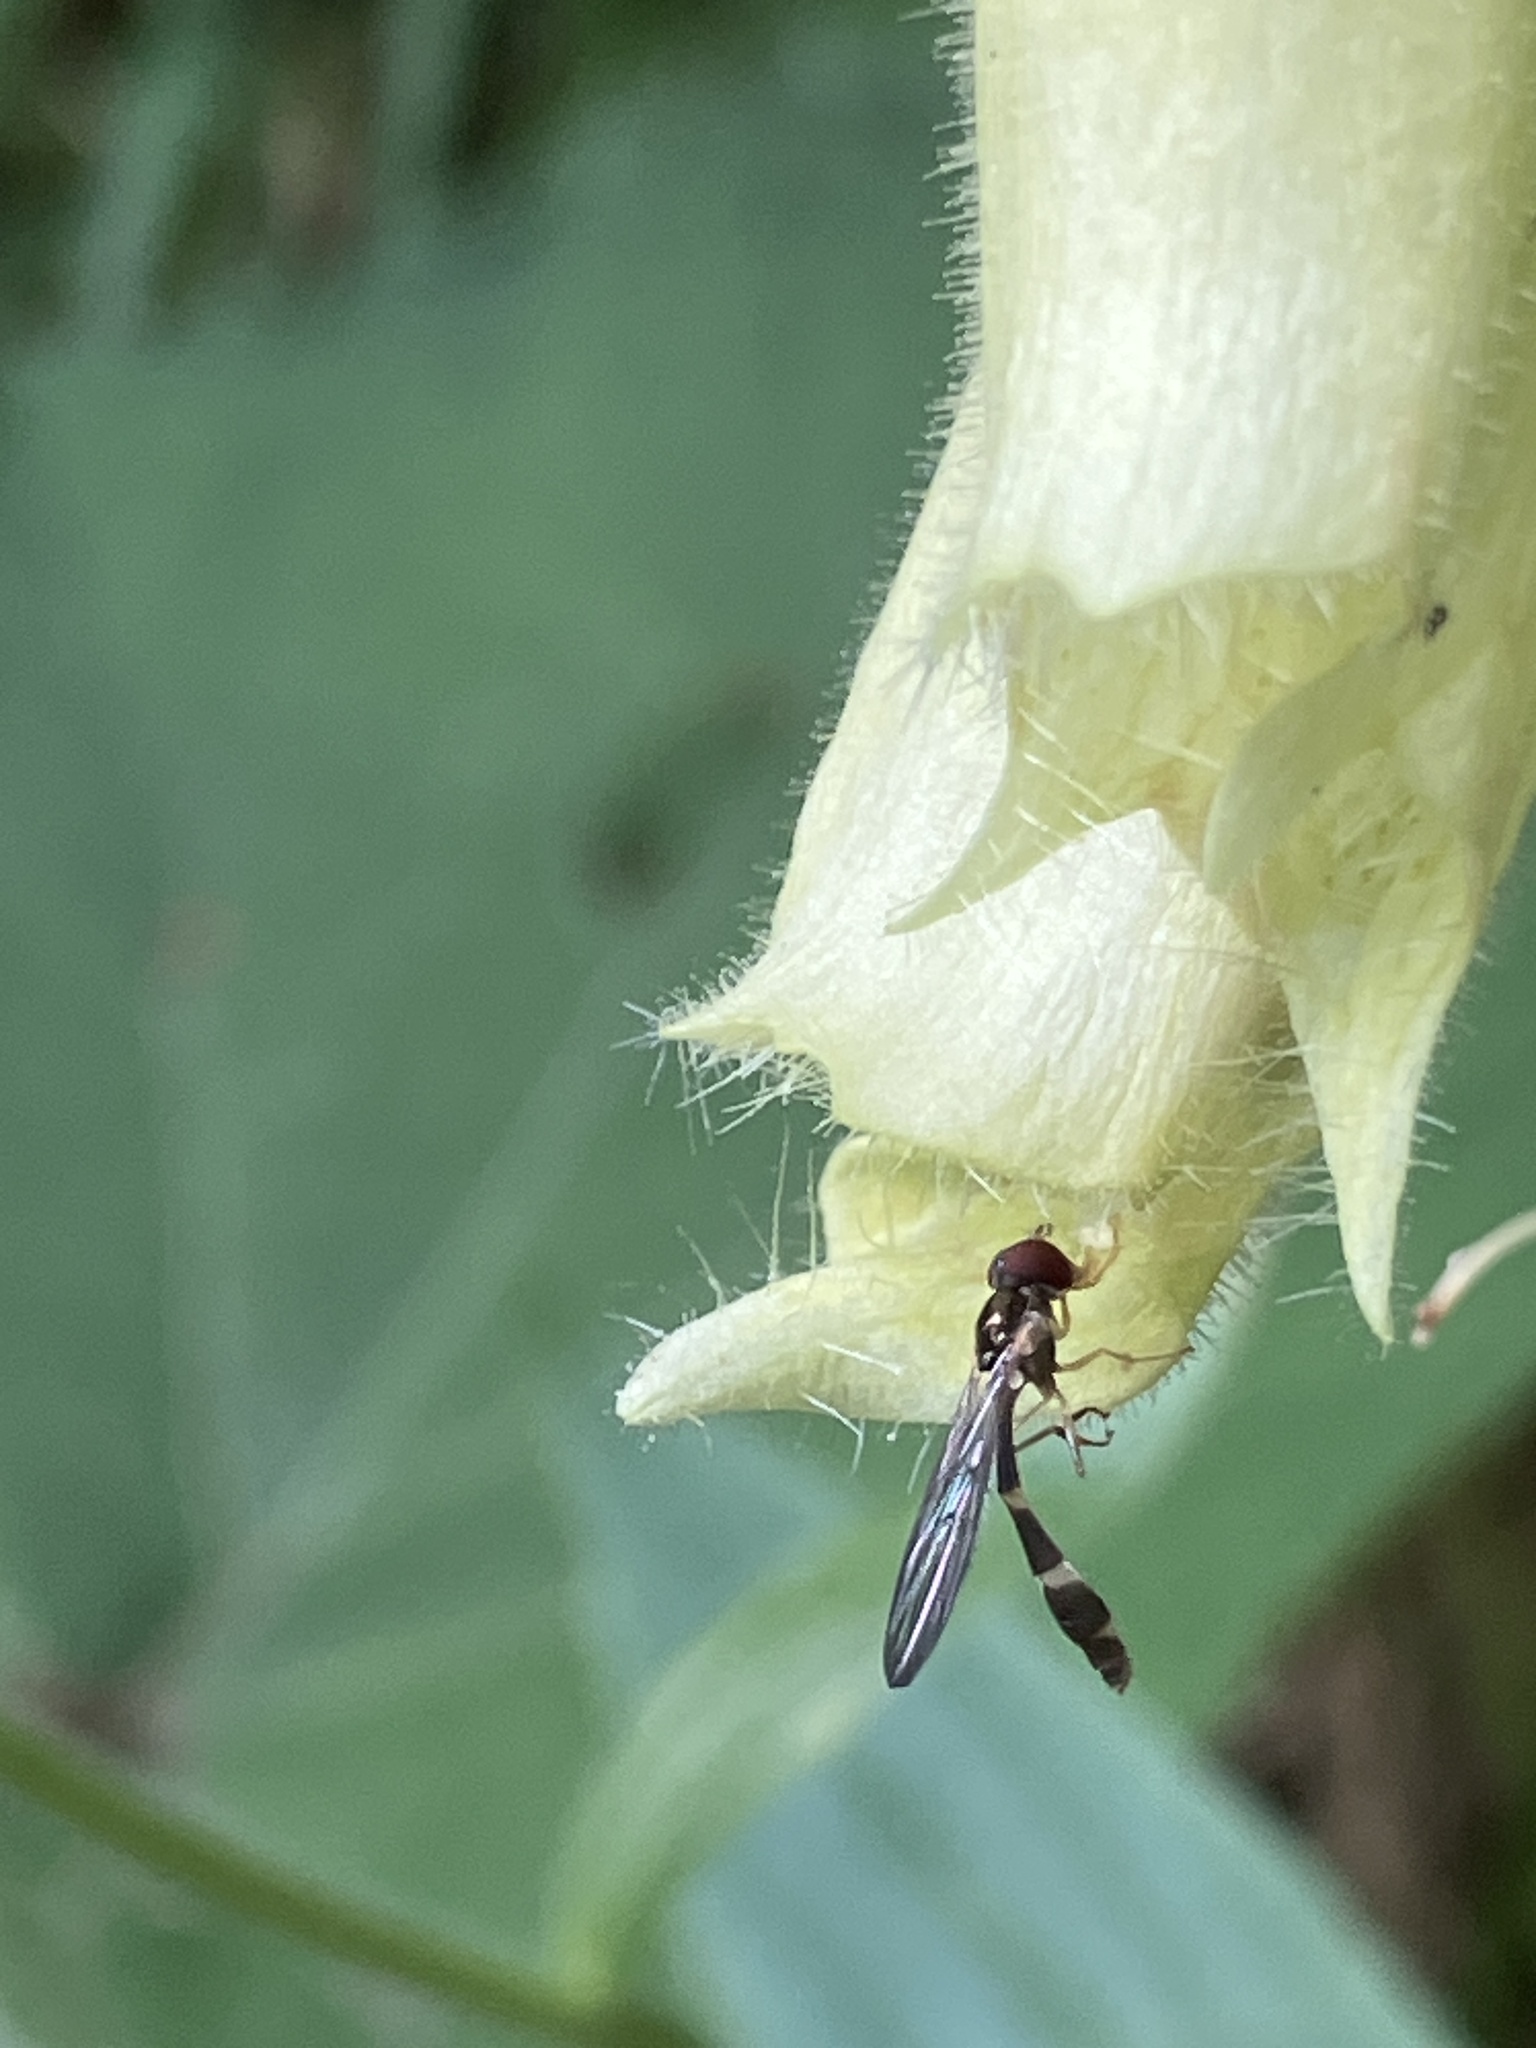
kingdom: Animalia
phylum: Arthropoda
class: Insecta
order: Diptera
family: Syrphidae
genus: Baccha
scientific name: Baccha elongata
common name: Common dainty
